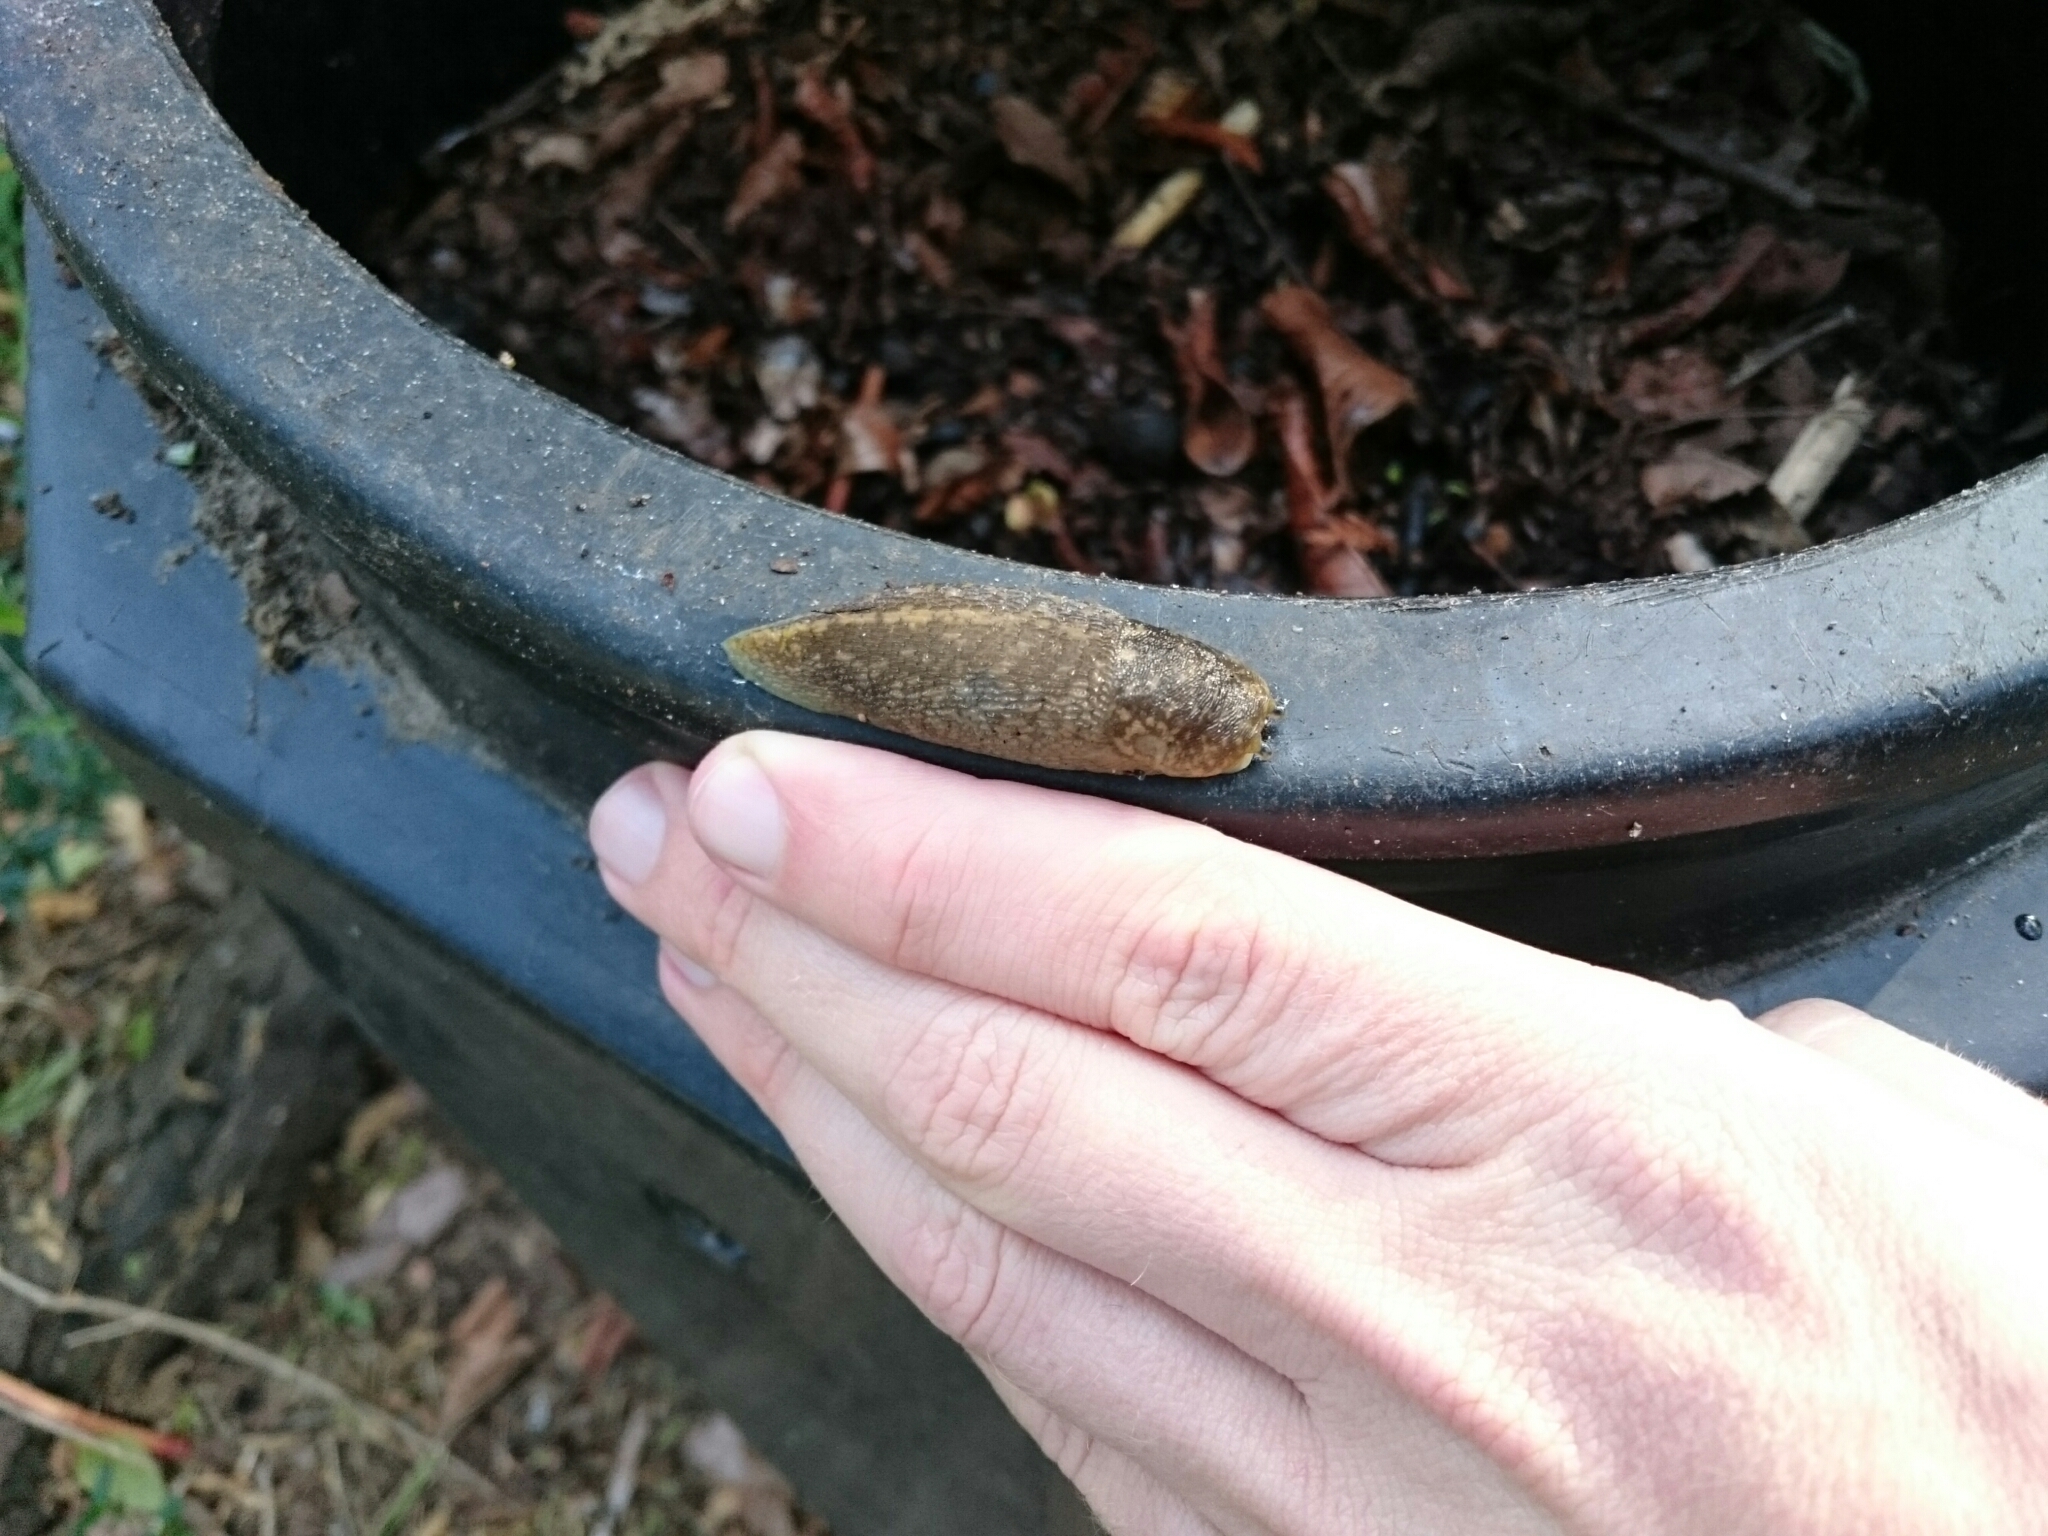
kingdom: Animalia
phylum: Mollusca
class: Gastropoda
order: Stylommatophora
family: Limacidae
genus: Limacus
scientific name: Limacus flavus
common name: Yellow gardenslug
